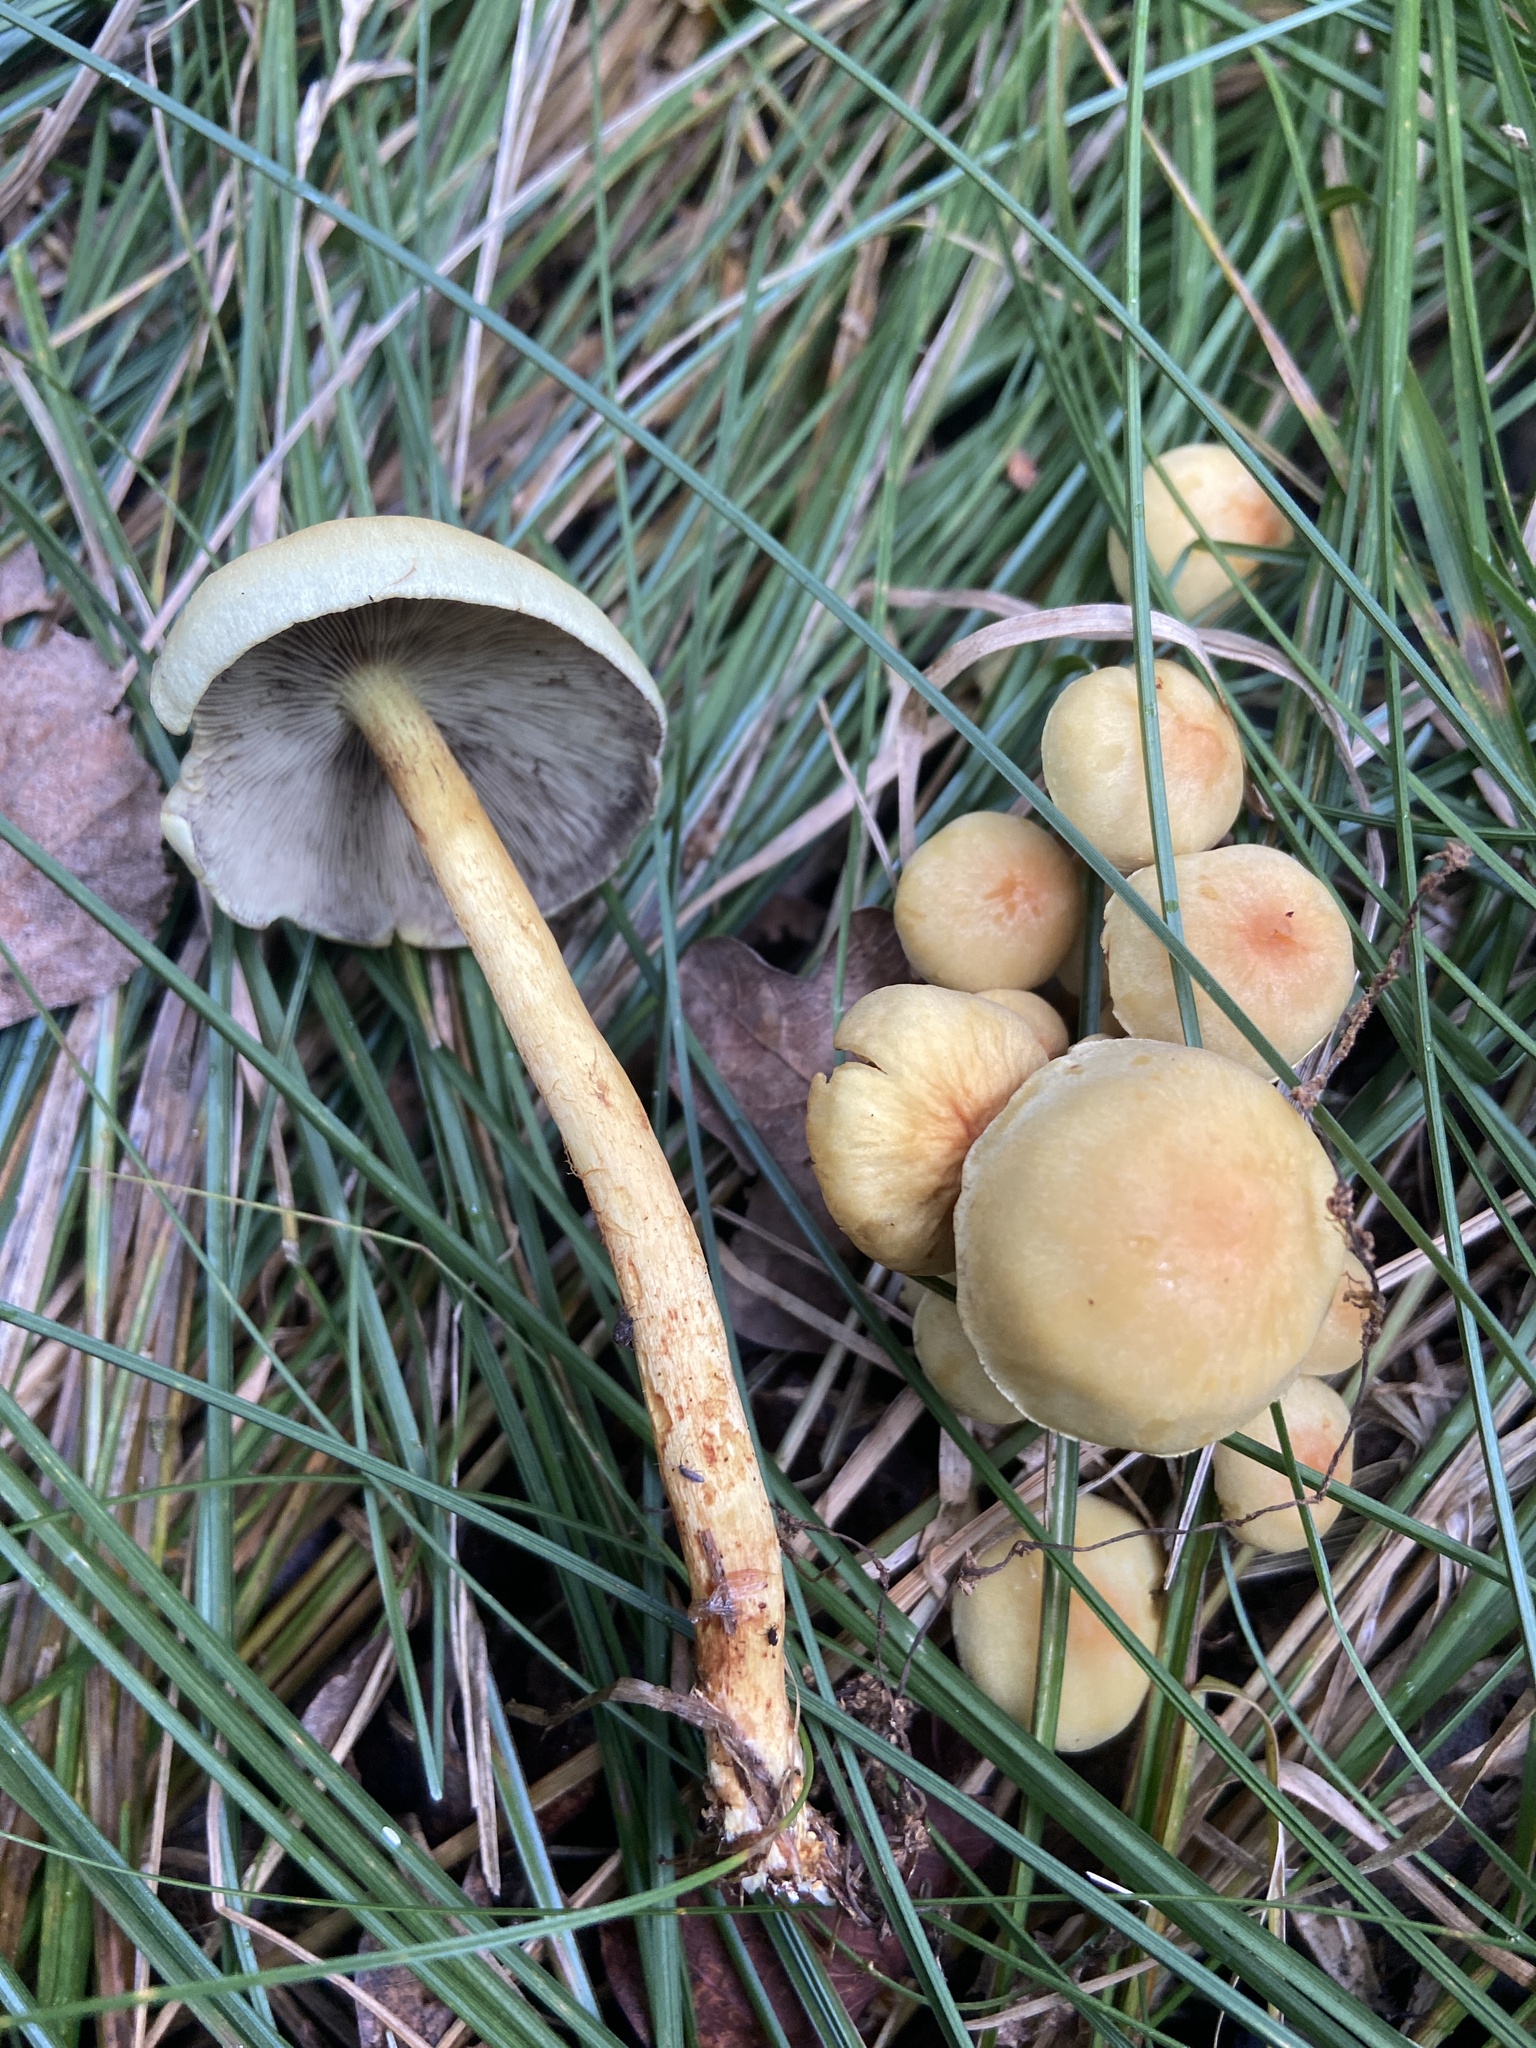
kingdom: Fungi
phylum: Basidiomycota
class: Agaricomycetes
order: Agaricales
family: Strophariaceae
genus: Hypholoma
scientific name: Hypholoma fasciculare
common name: Sulphur tuft
